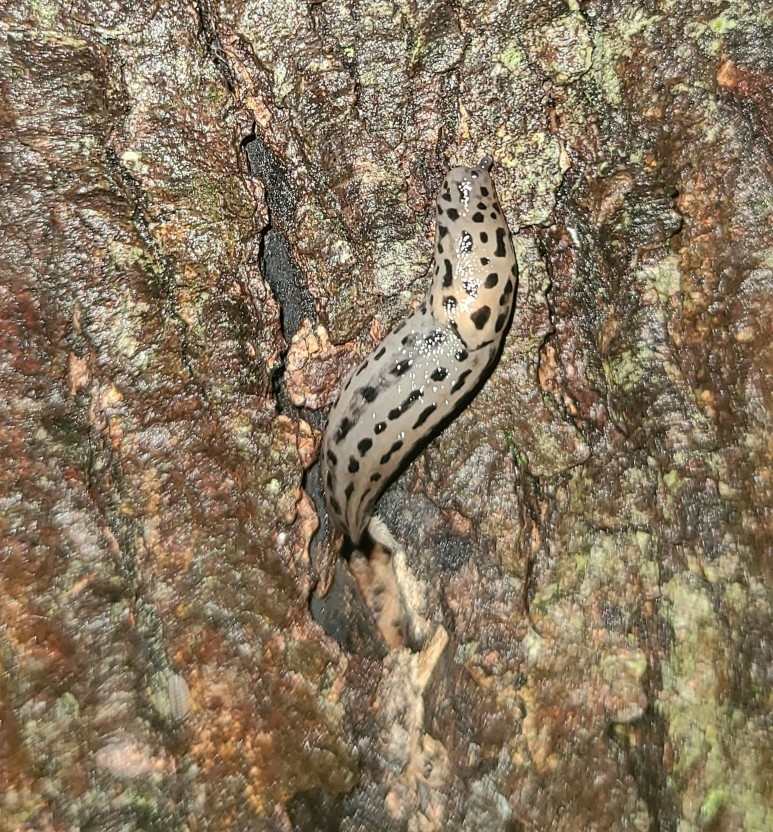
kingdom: Animalia
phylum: Mollusca
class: Gastropoda
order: Stylommatophora
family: Limacidae
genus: Limax
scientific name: Limax maximus
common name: Great grey slug
